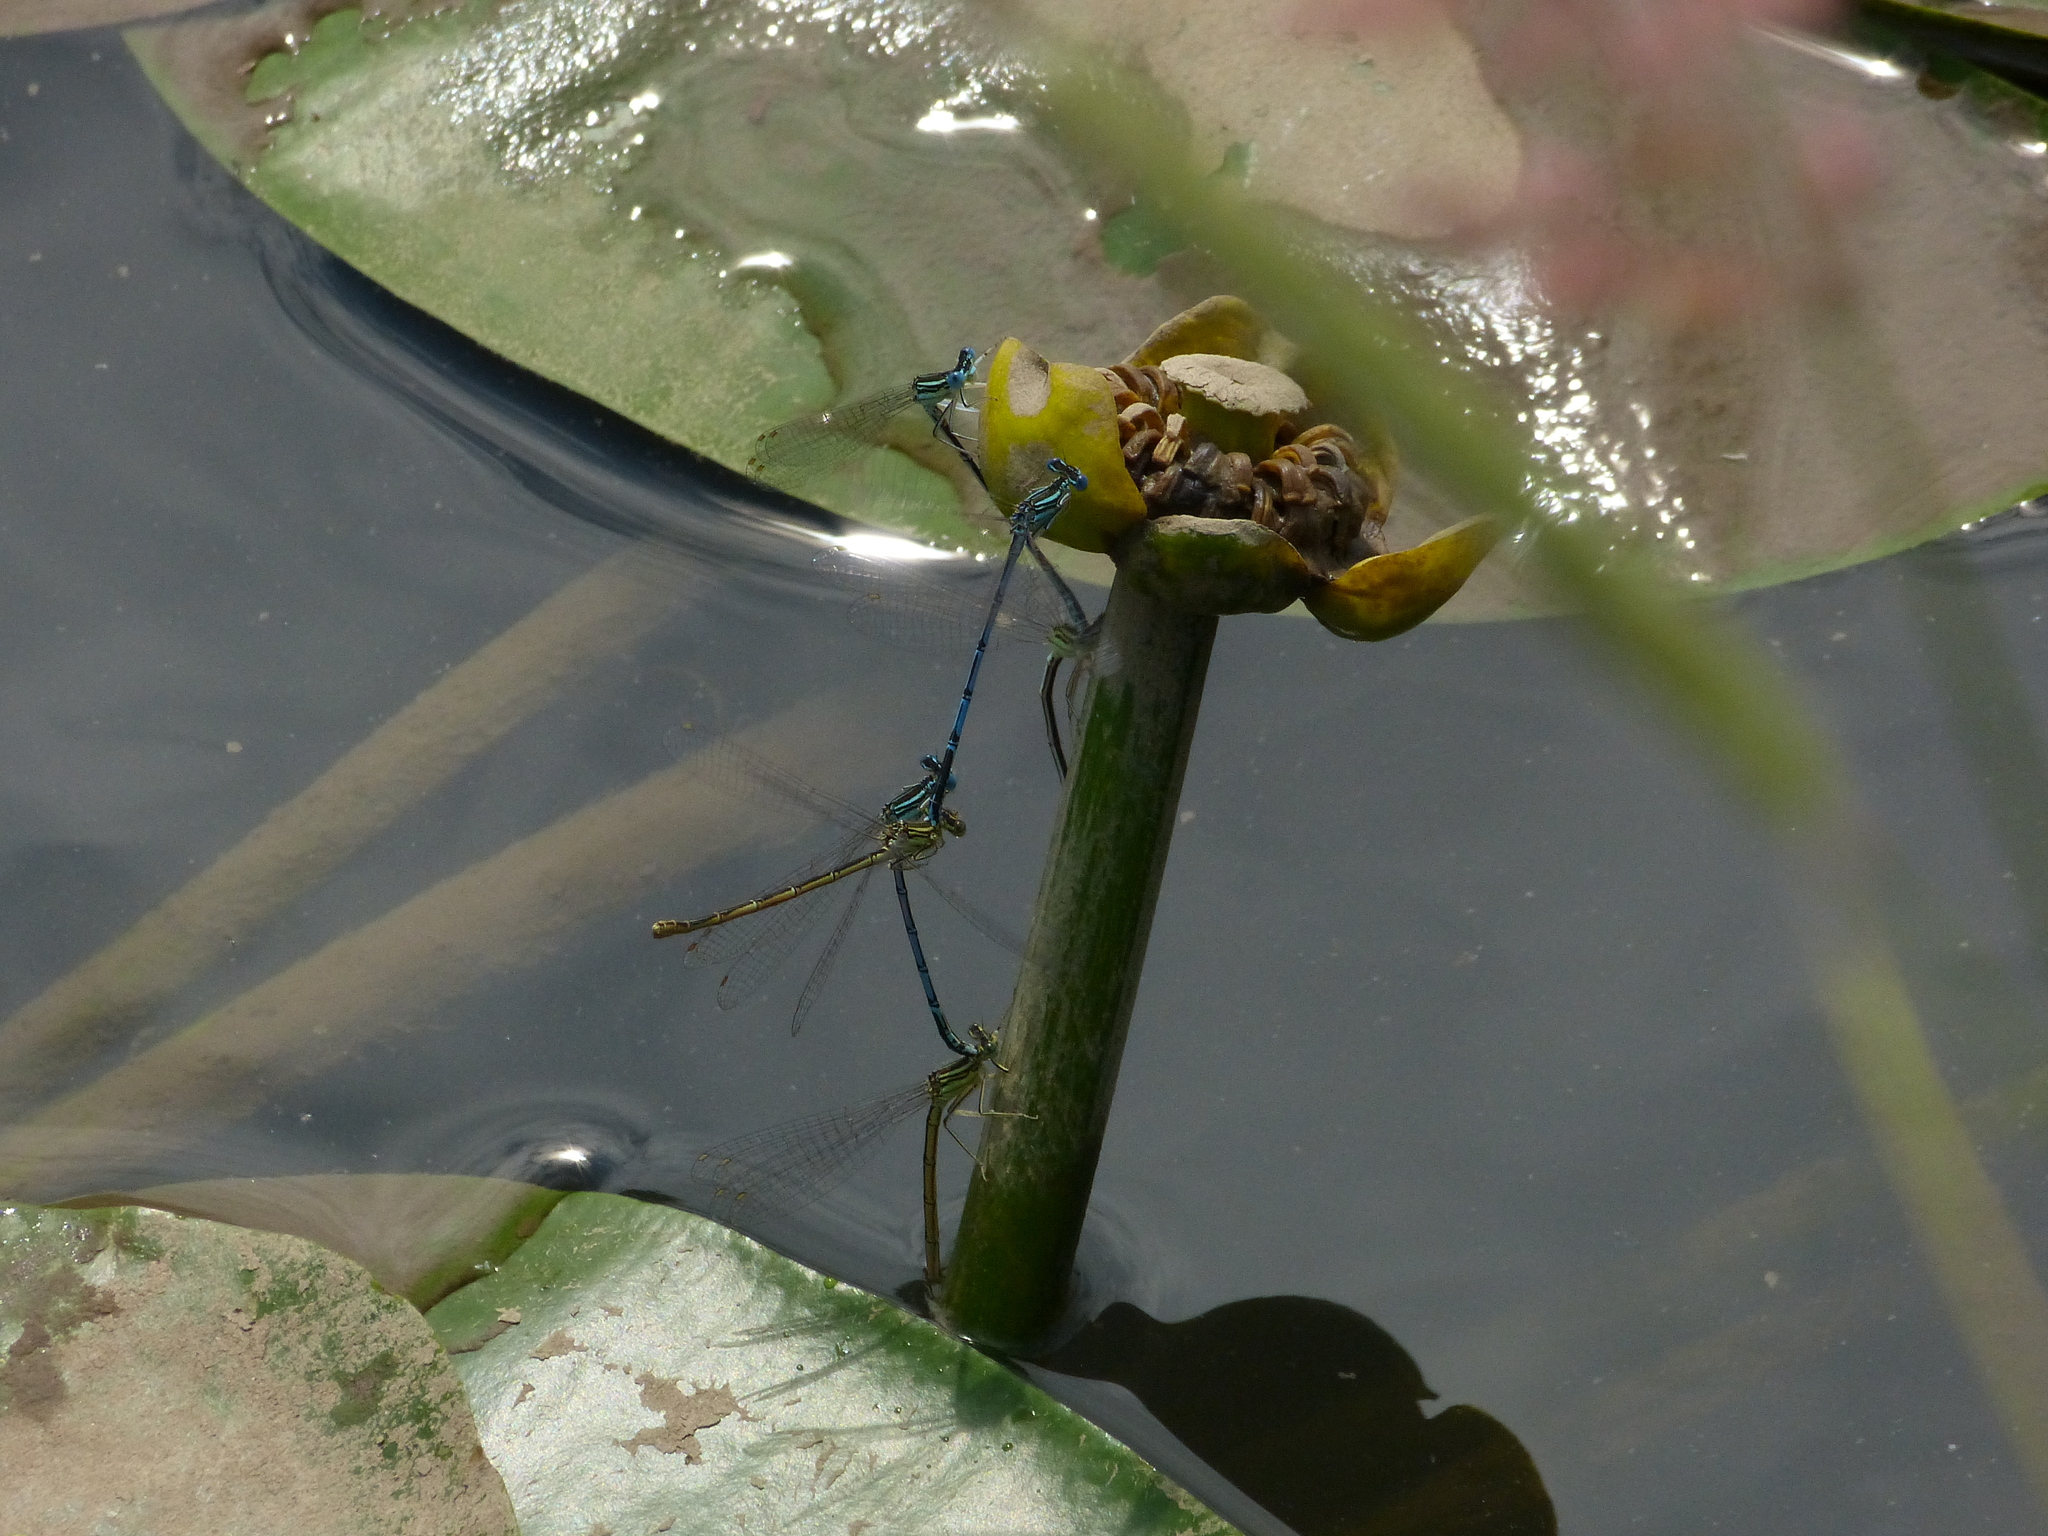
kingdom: Animalia
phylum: Arthropoda
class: Insecta
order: Odonata
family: Platycnemididae
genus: Platycnemis
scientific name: Platycnemis pennipes
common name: White-legged damselfly
